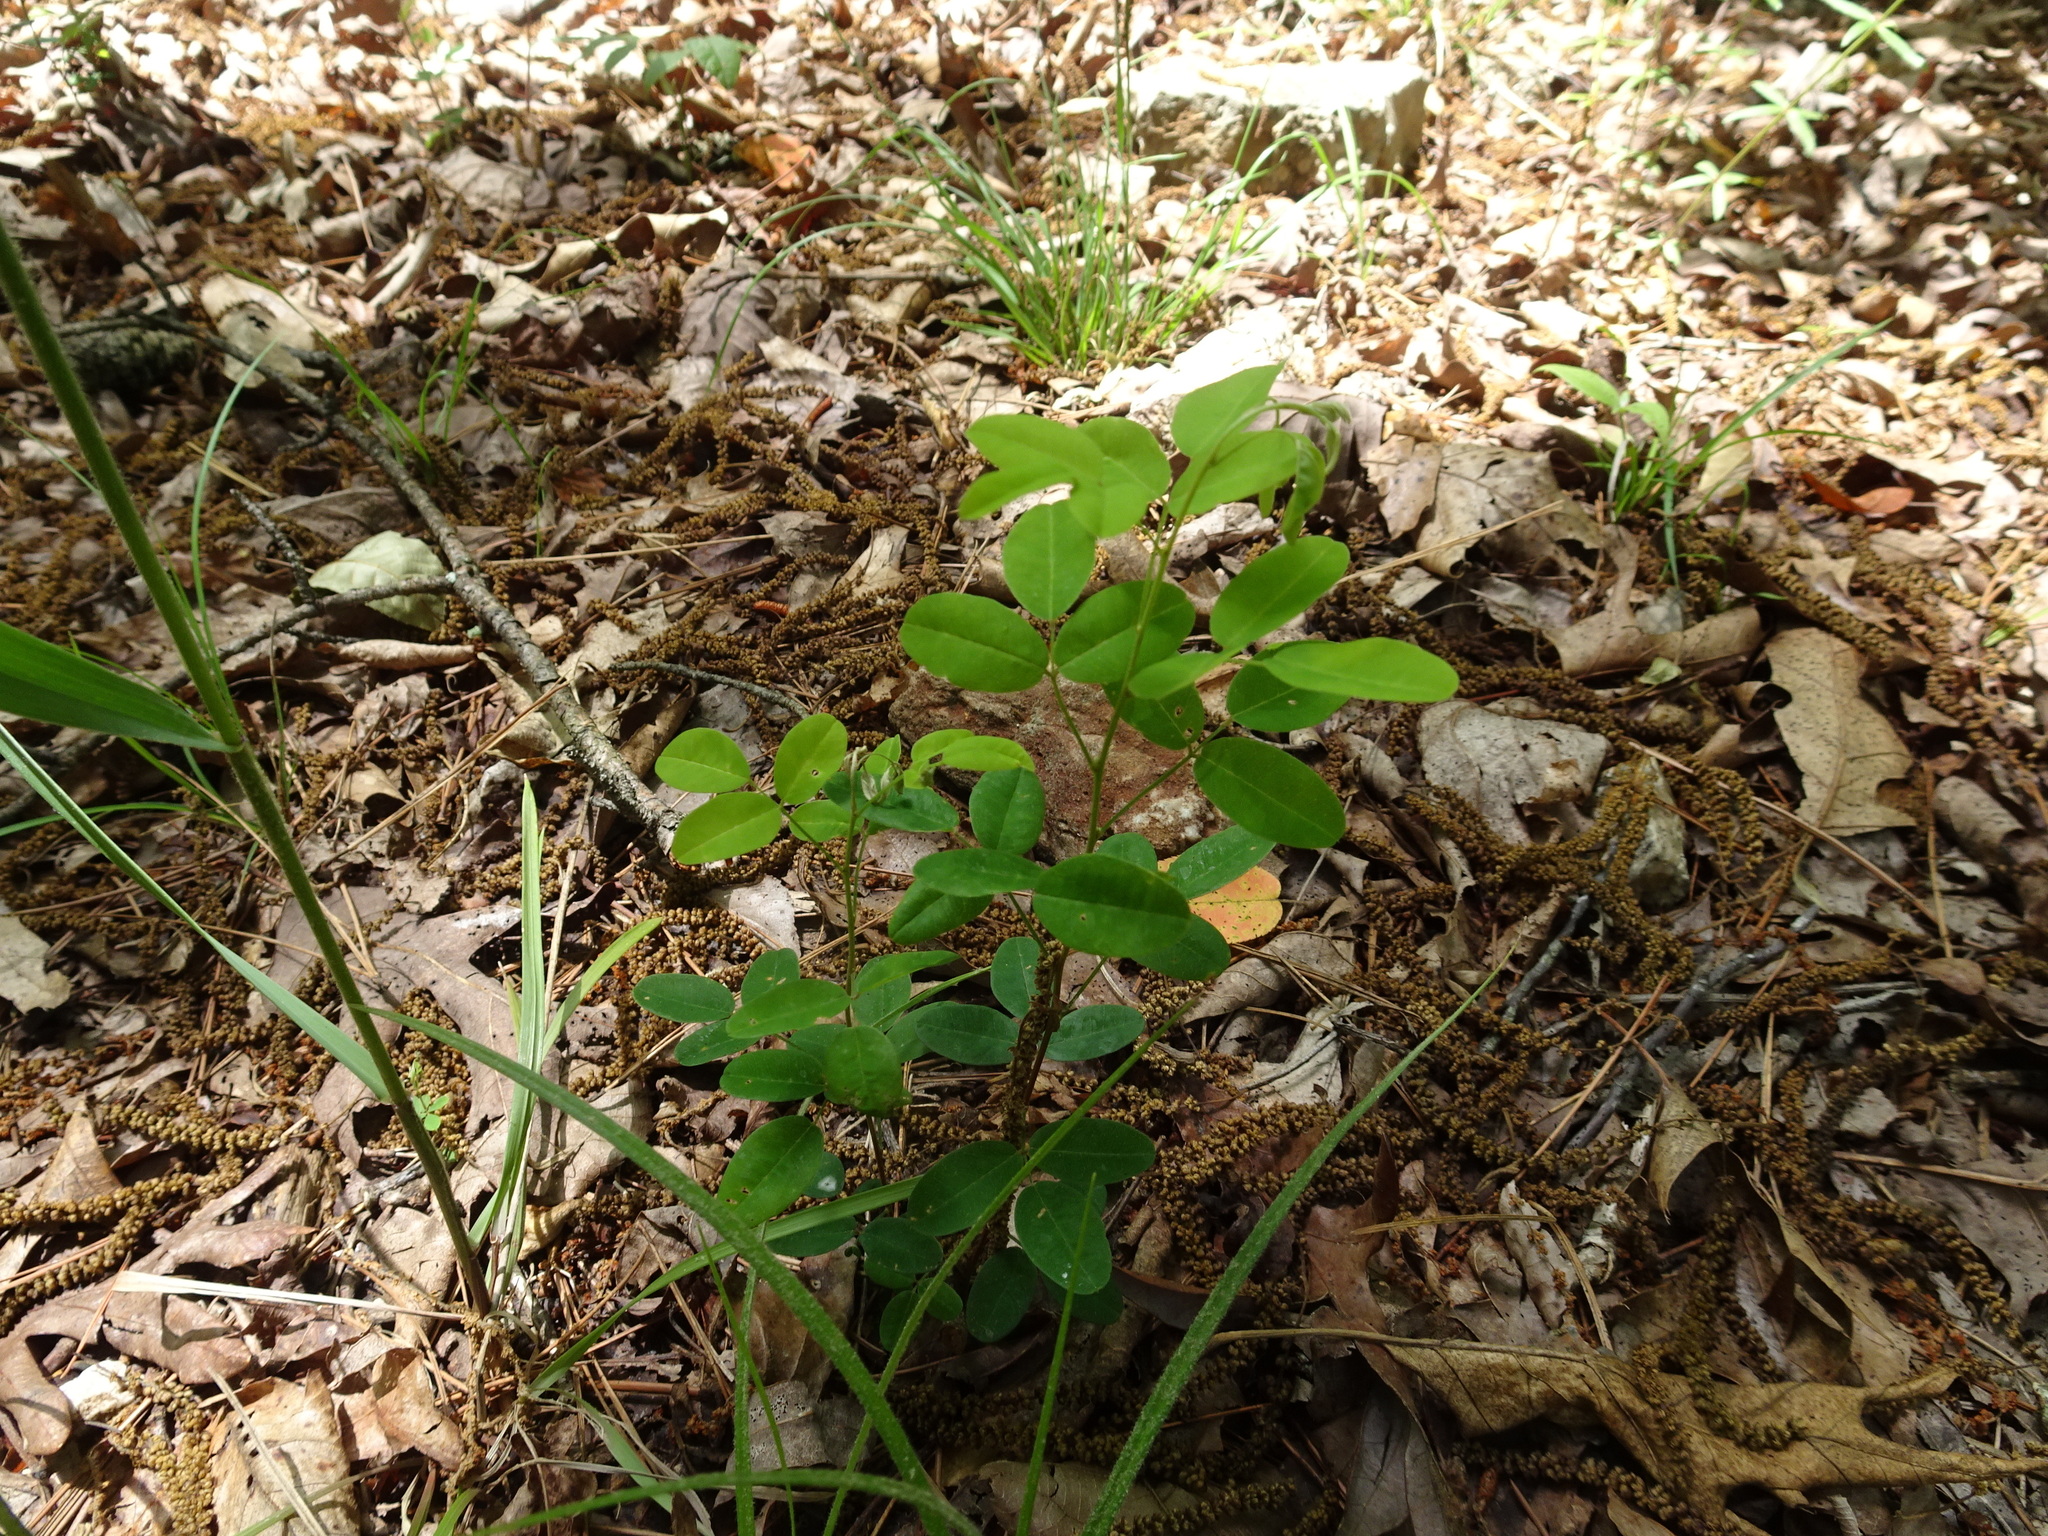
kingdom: Plantae
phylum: Tracheophyta
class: Magnoliopsida
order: Fabales
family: Fabaceae
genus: Lespedeza
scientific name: Lespedeza violacea
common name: Wand bush-clover
